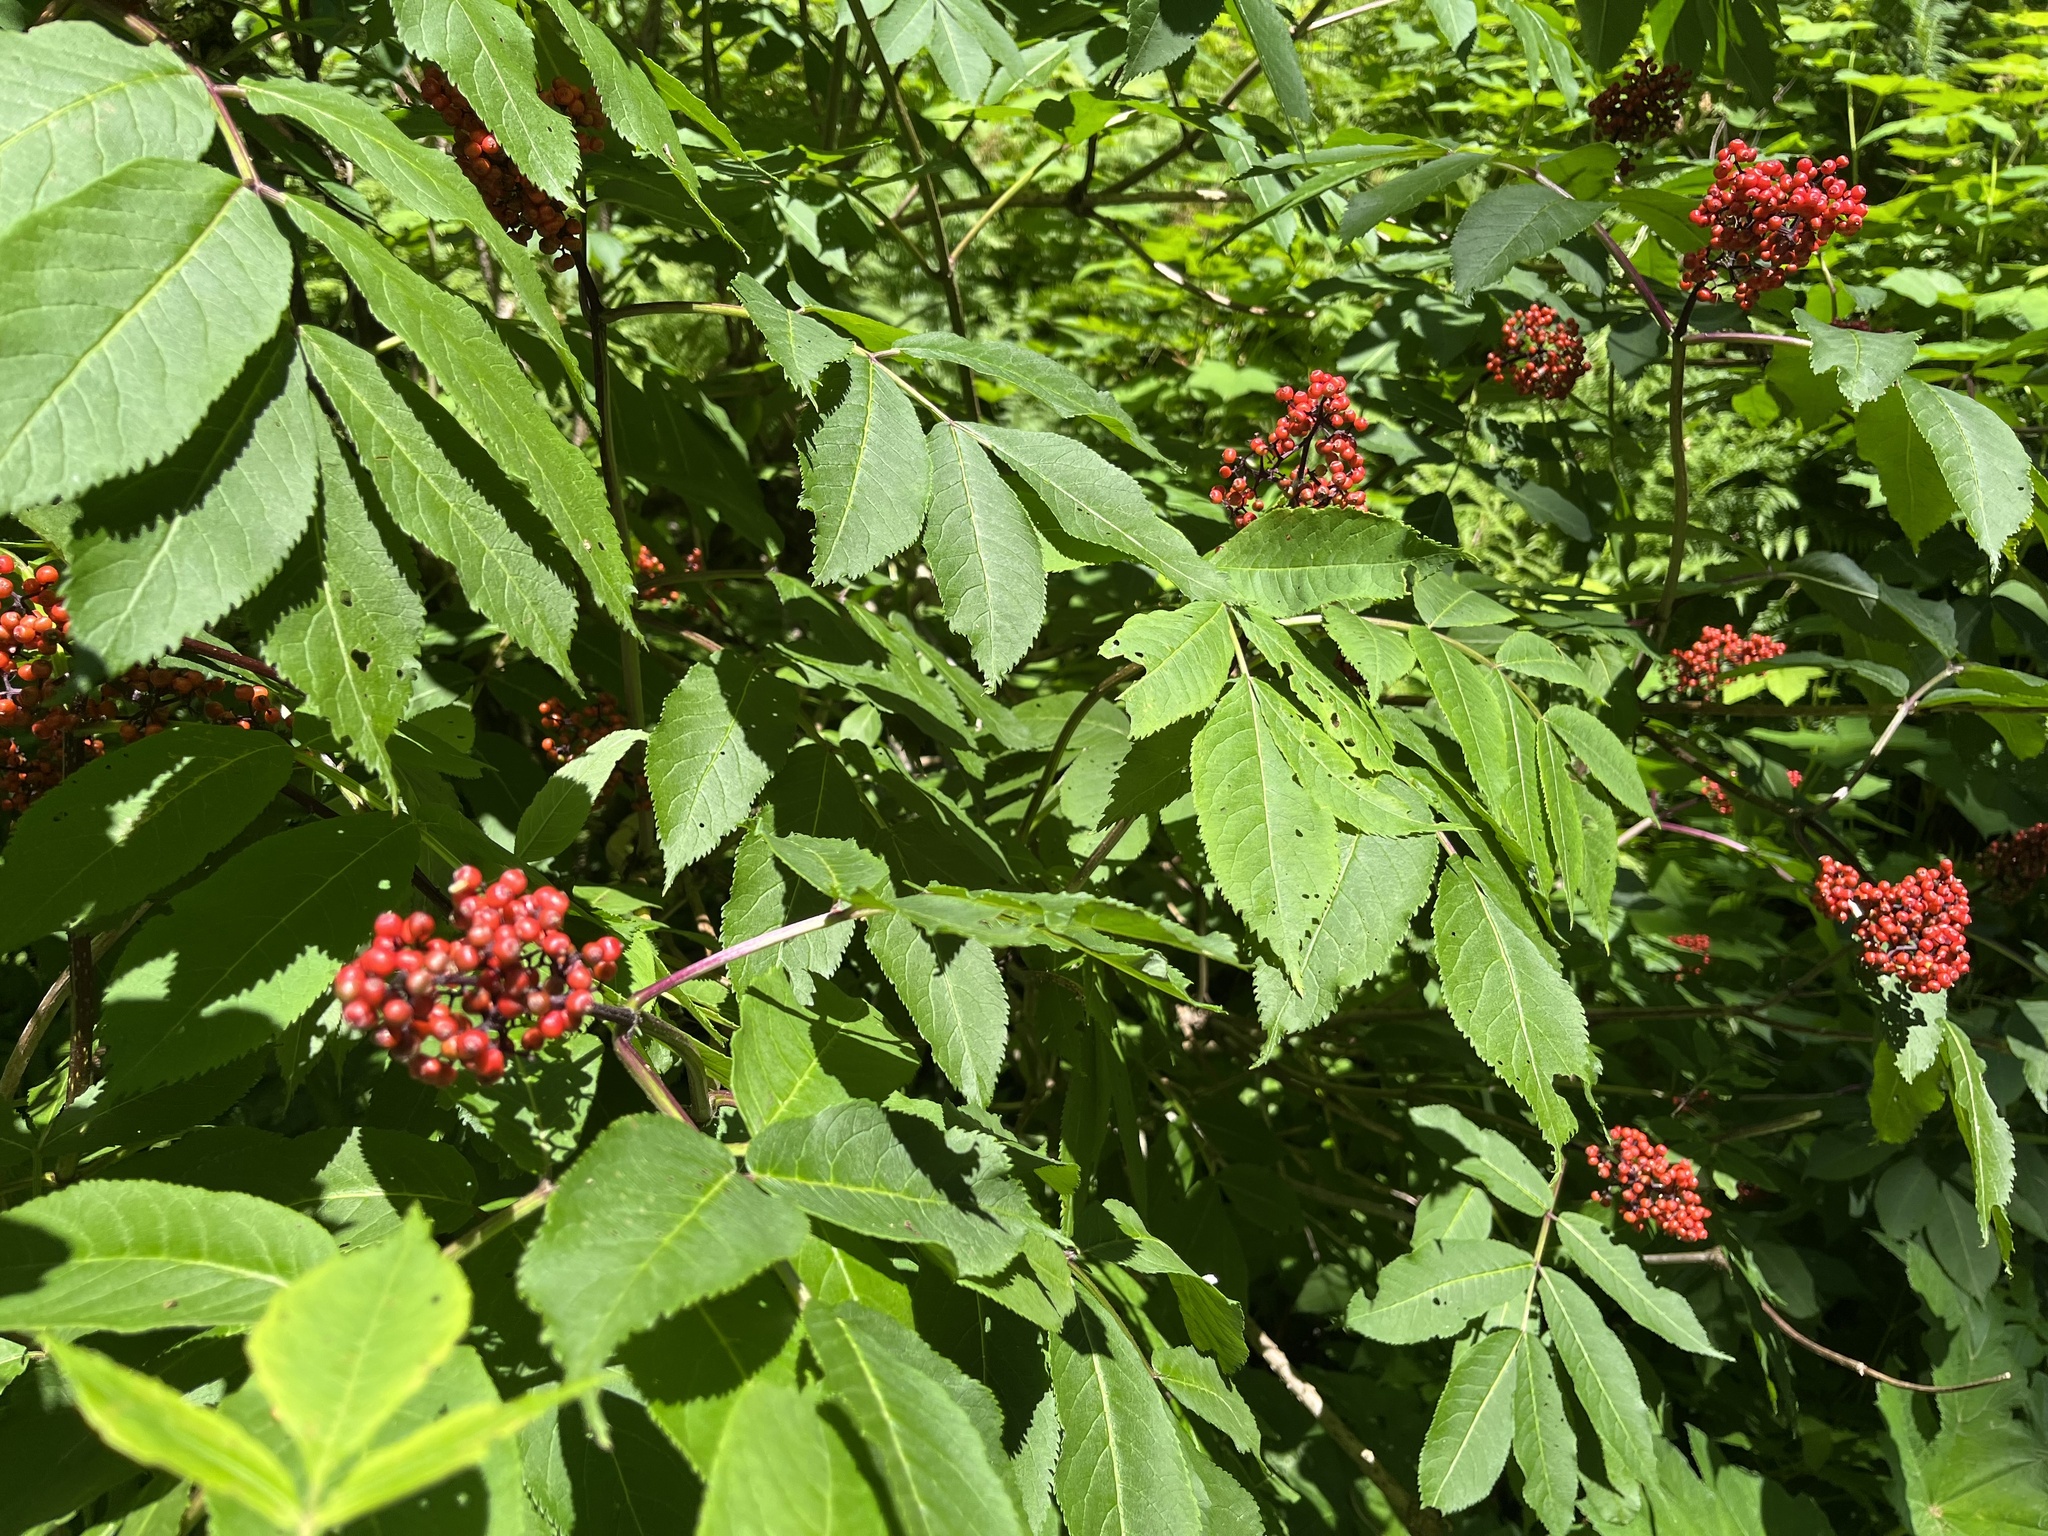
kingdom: Plantae
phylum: Tracheophyta
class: Magnoliopsida
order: Dipsacales
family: Viburnaceae
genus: Sambucus
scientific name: Sambucus racemosa
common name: Red-berried elder
